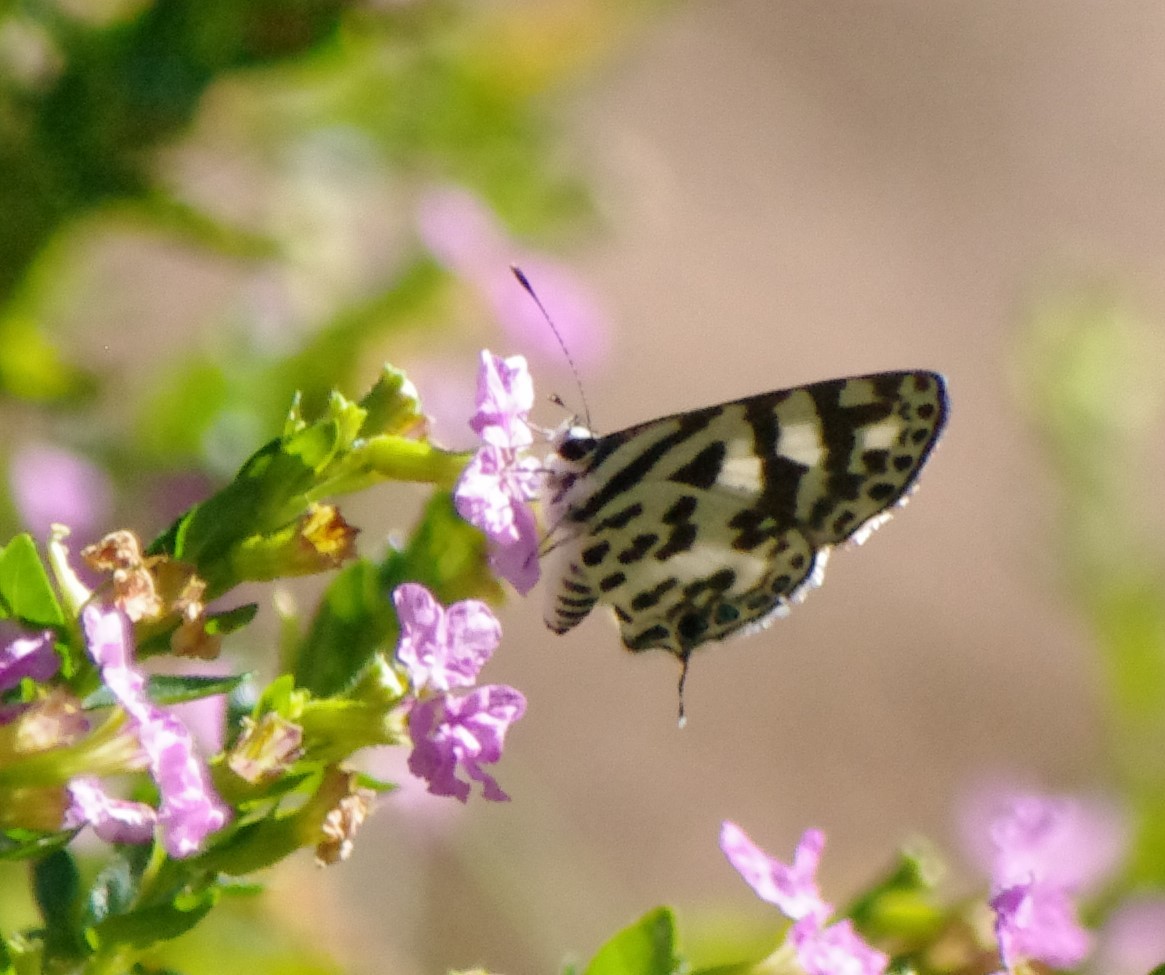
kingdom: Animalia
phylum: Arthropoda
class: Insecta
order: Lepidoptera
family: Lycaenidae
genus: Castalius
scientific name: Castalius melaena
